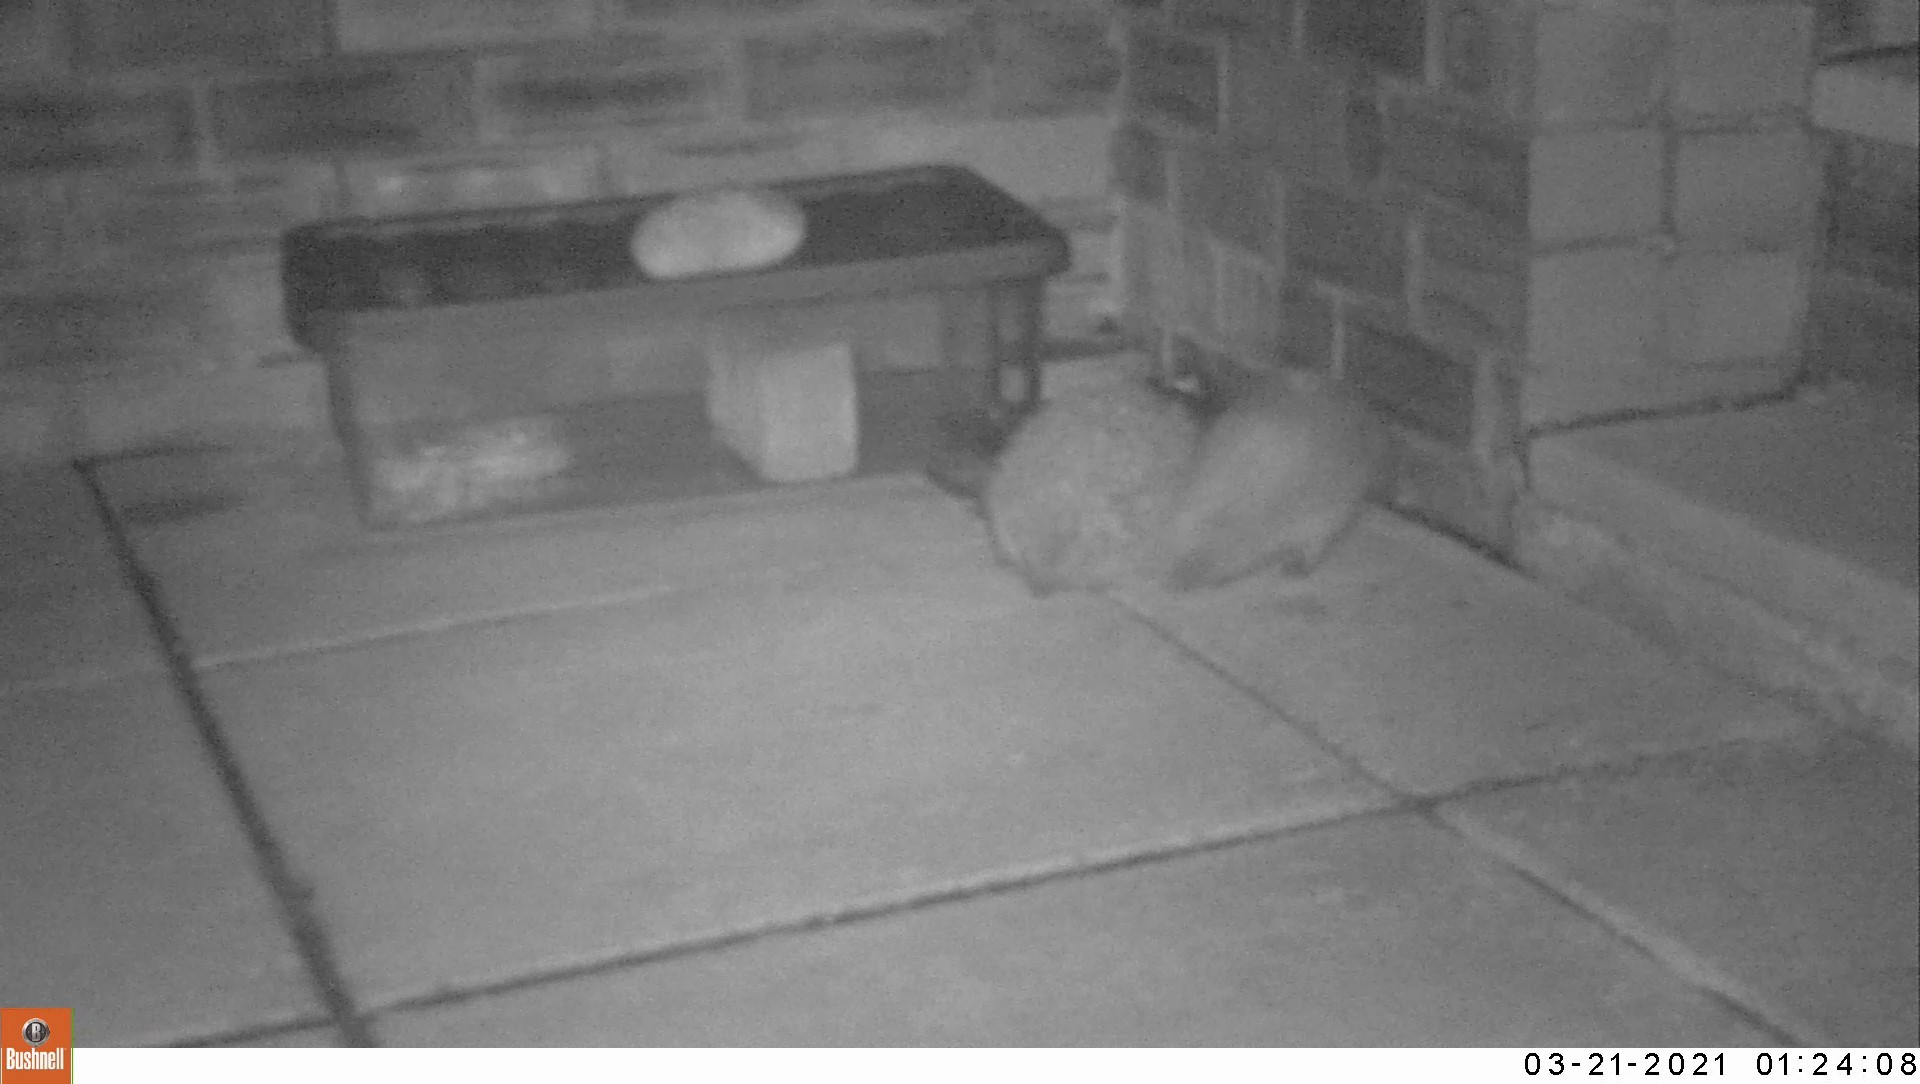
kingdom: Animalia
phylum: Chordata
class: Mammalia
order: Erinaceomorpha
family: Erinaceidae
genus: Erinaceus
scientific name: Erinaceus europaeus
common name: West european hedgehog
